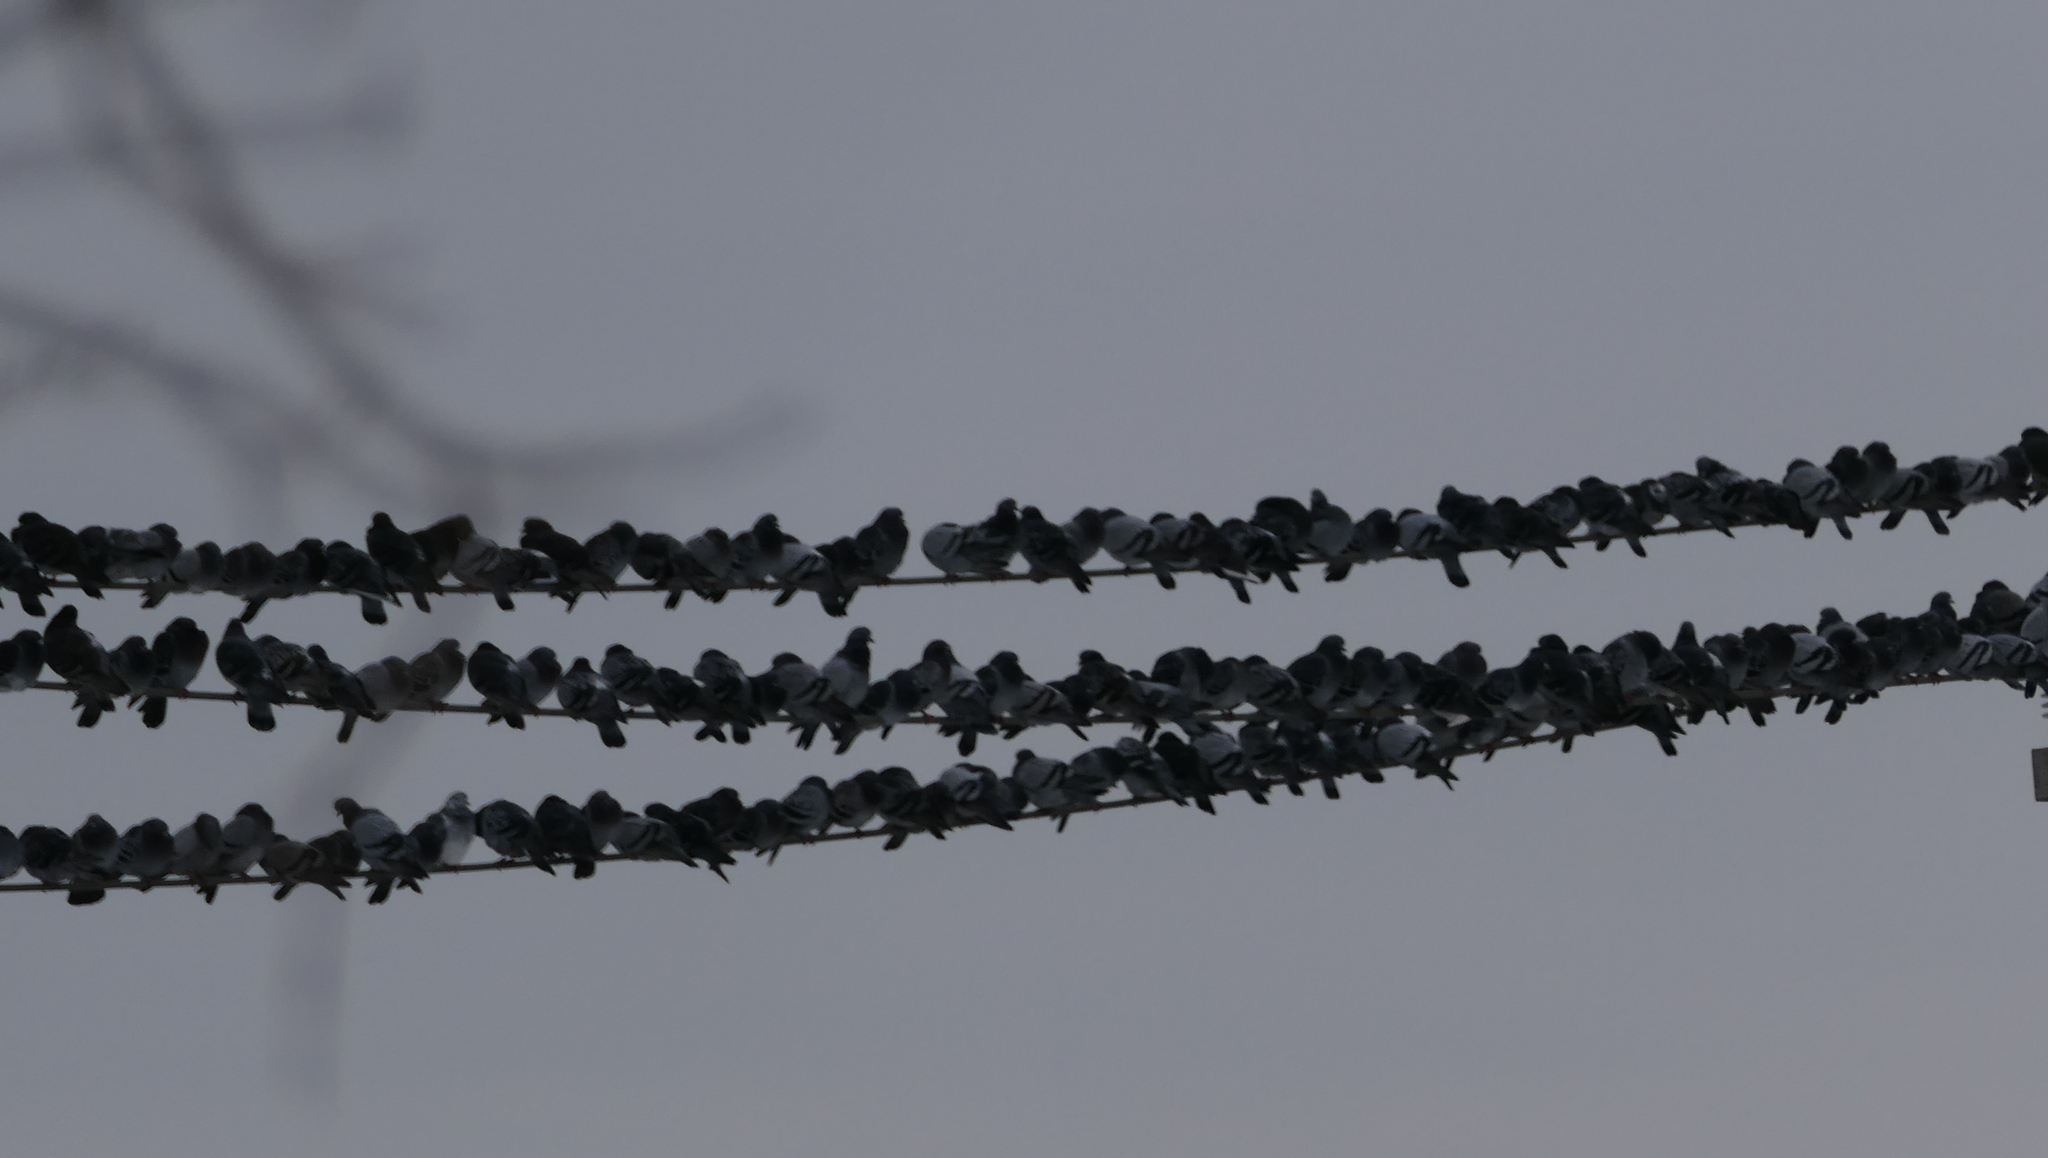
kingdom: Animalia
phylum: Chordata
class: Aves
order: Columbiformes
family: Columbidae
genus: Columba
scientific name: Columba livia
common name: Rock pigeon
